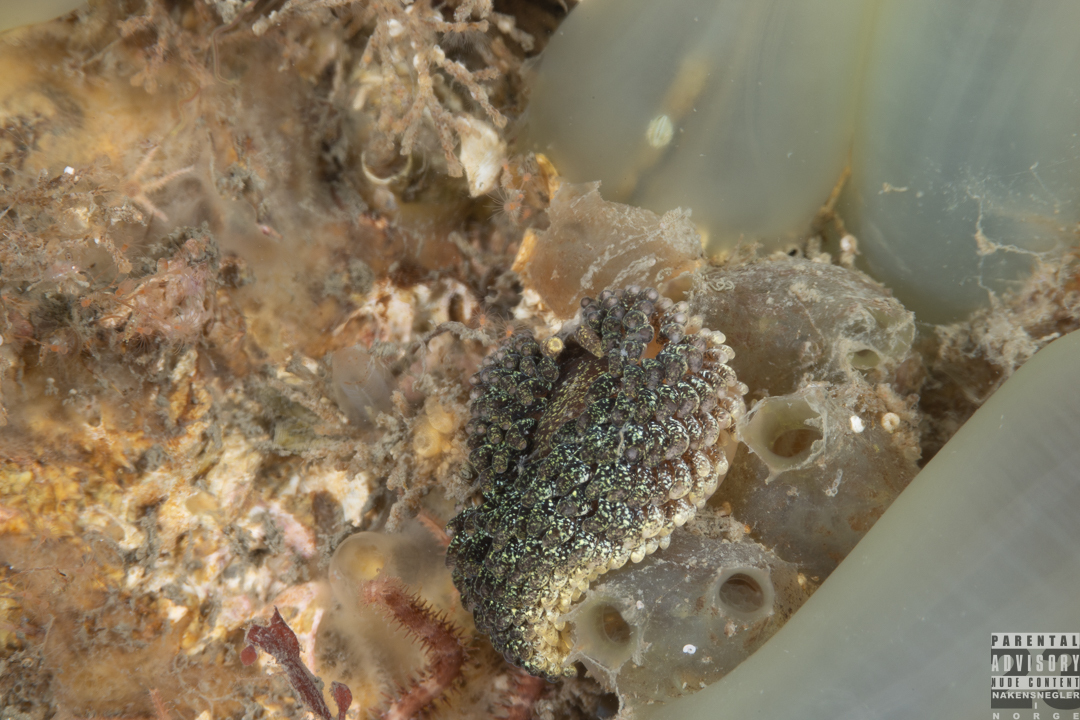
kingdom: Animalia
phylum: Mollusca
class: Gastropoda
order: Nudibranchia
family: Aeolidiidae
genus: Aeolidia
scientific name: Aeolidia papillosa
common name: Common grey sea slug
